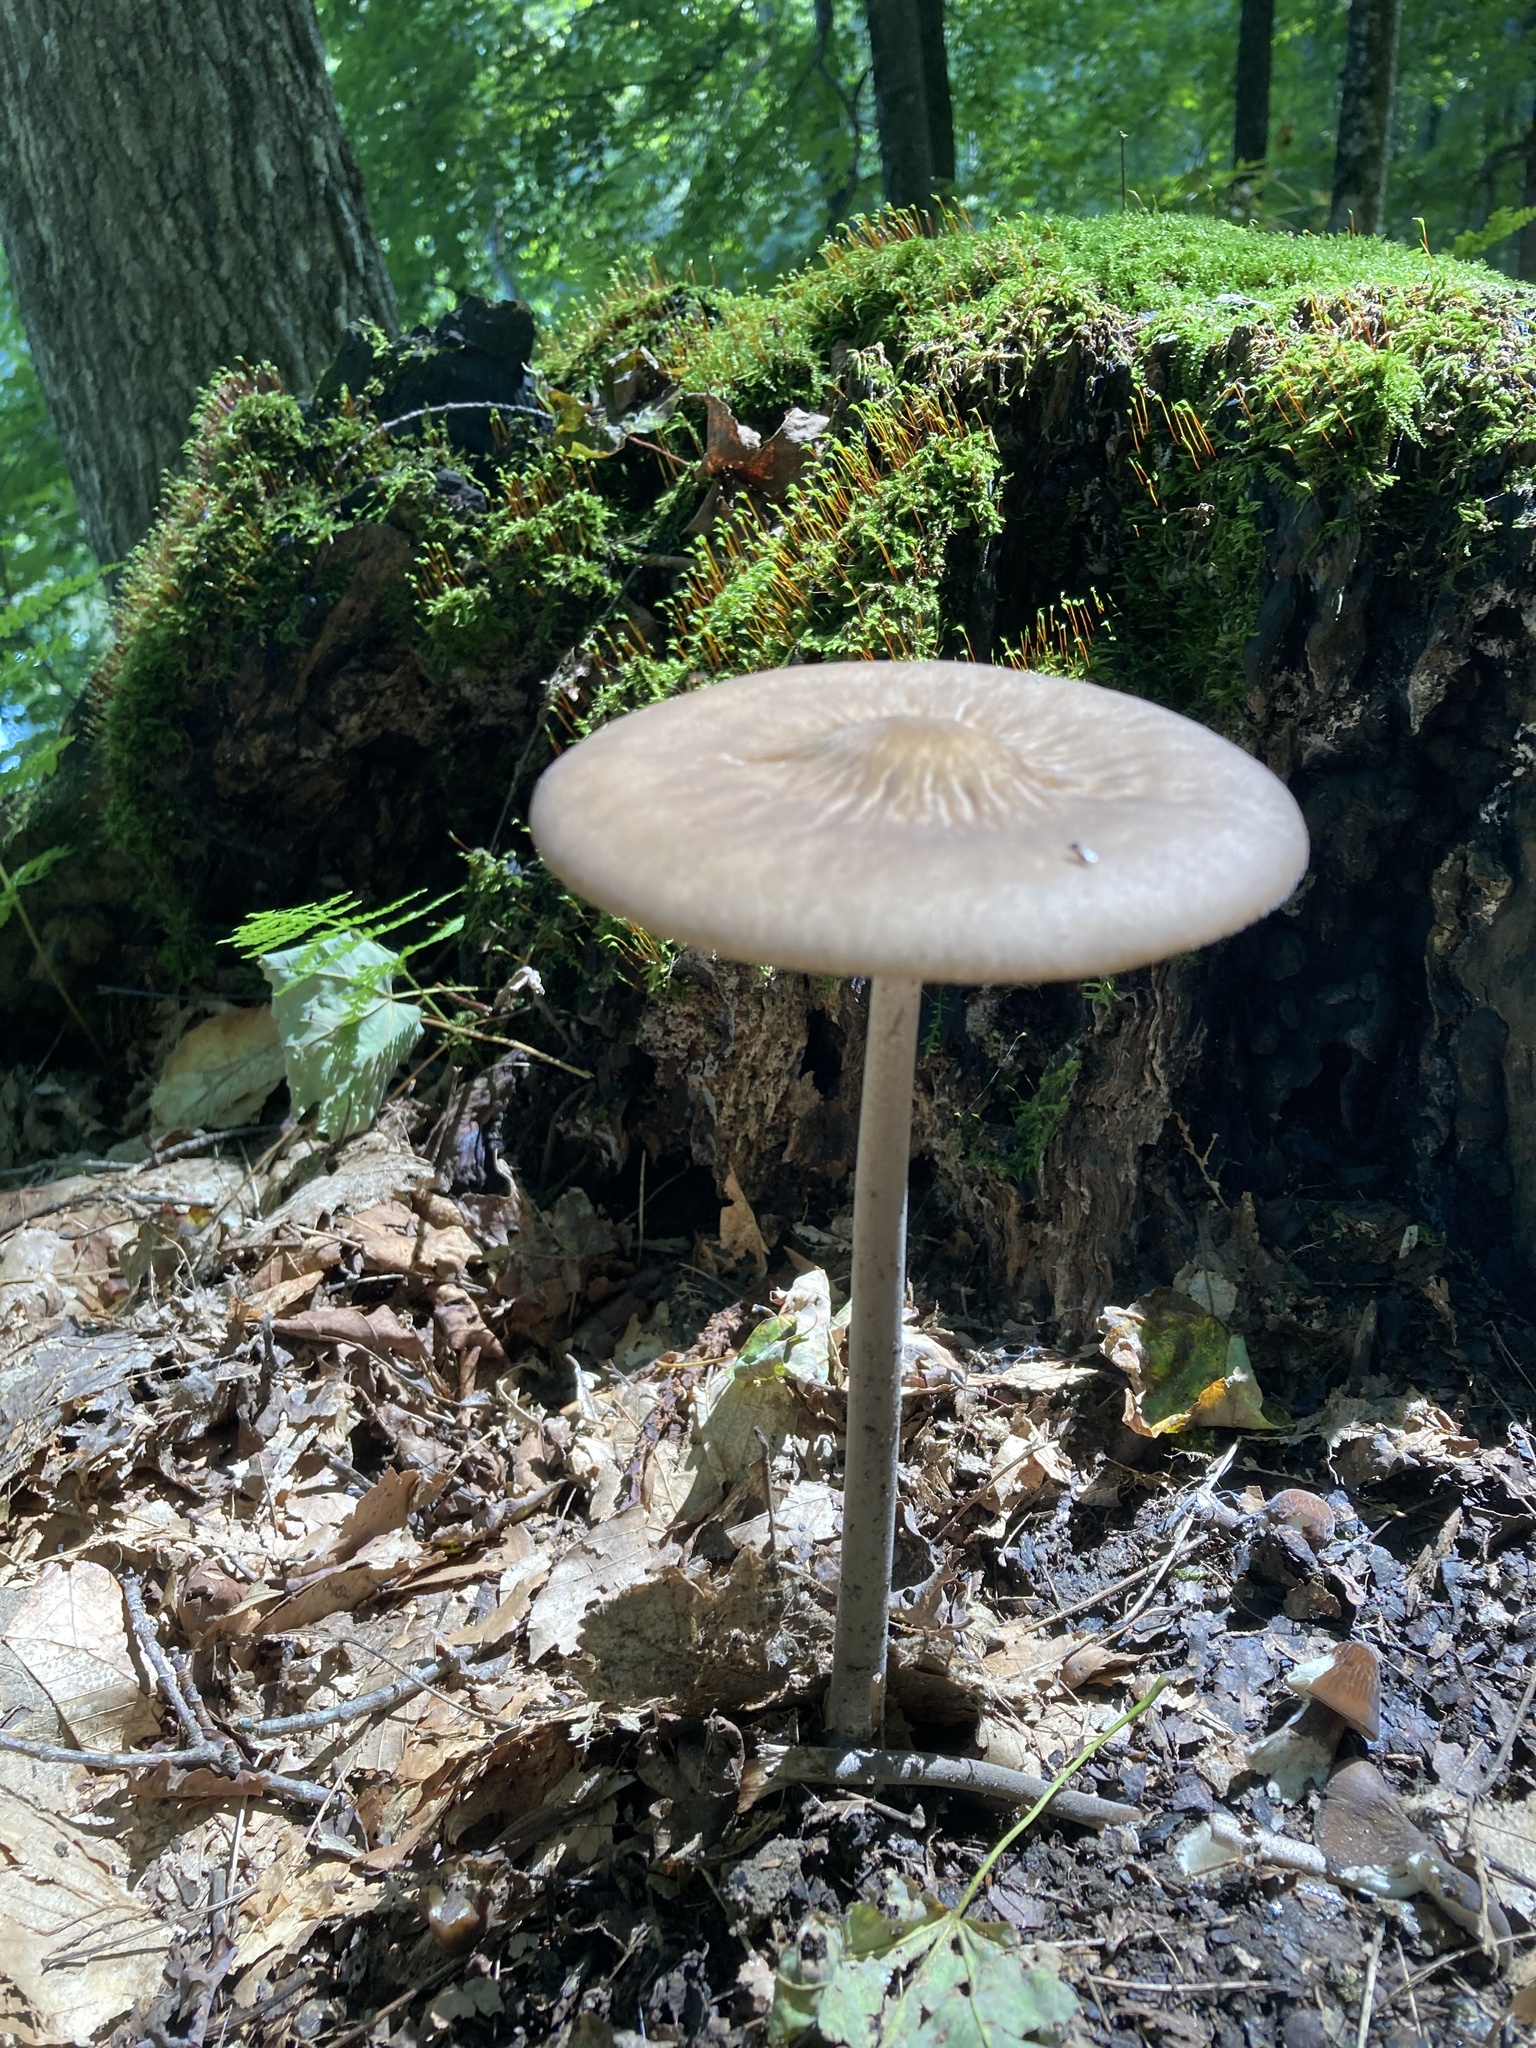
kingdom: Fungi
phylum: Basidiomycota
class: Agaricomycetes
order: Agaricales
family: Physalacriaceae
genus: Hymenopellis
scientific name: Hymenopellis furfuracea
